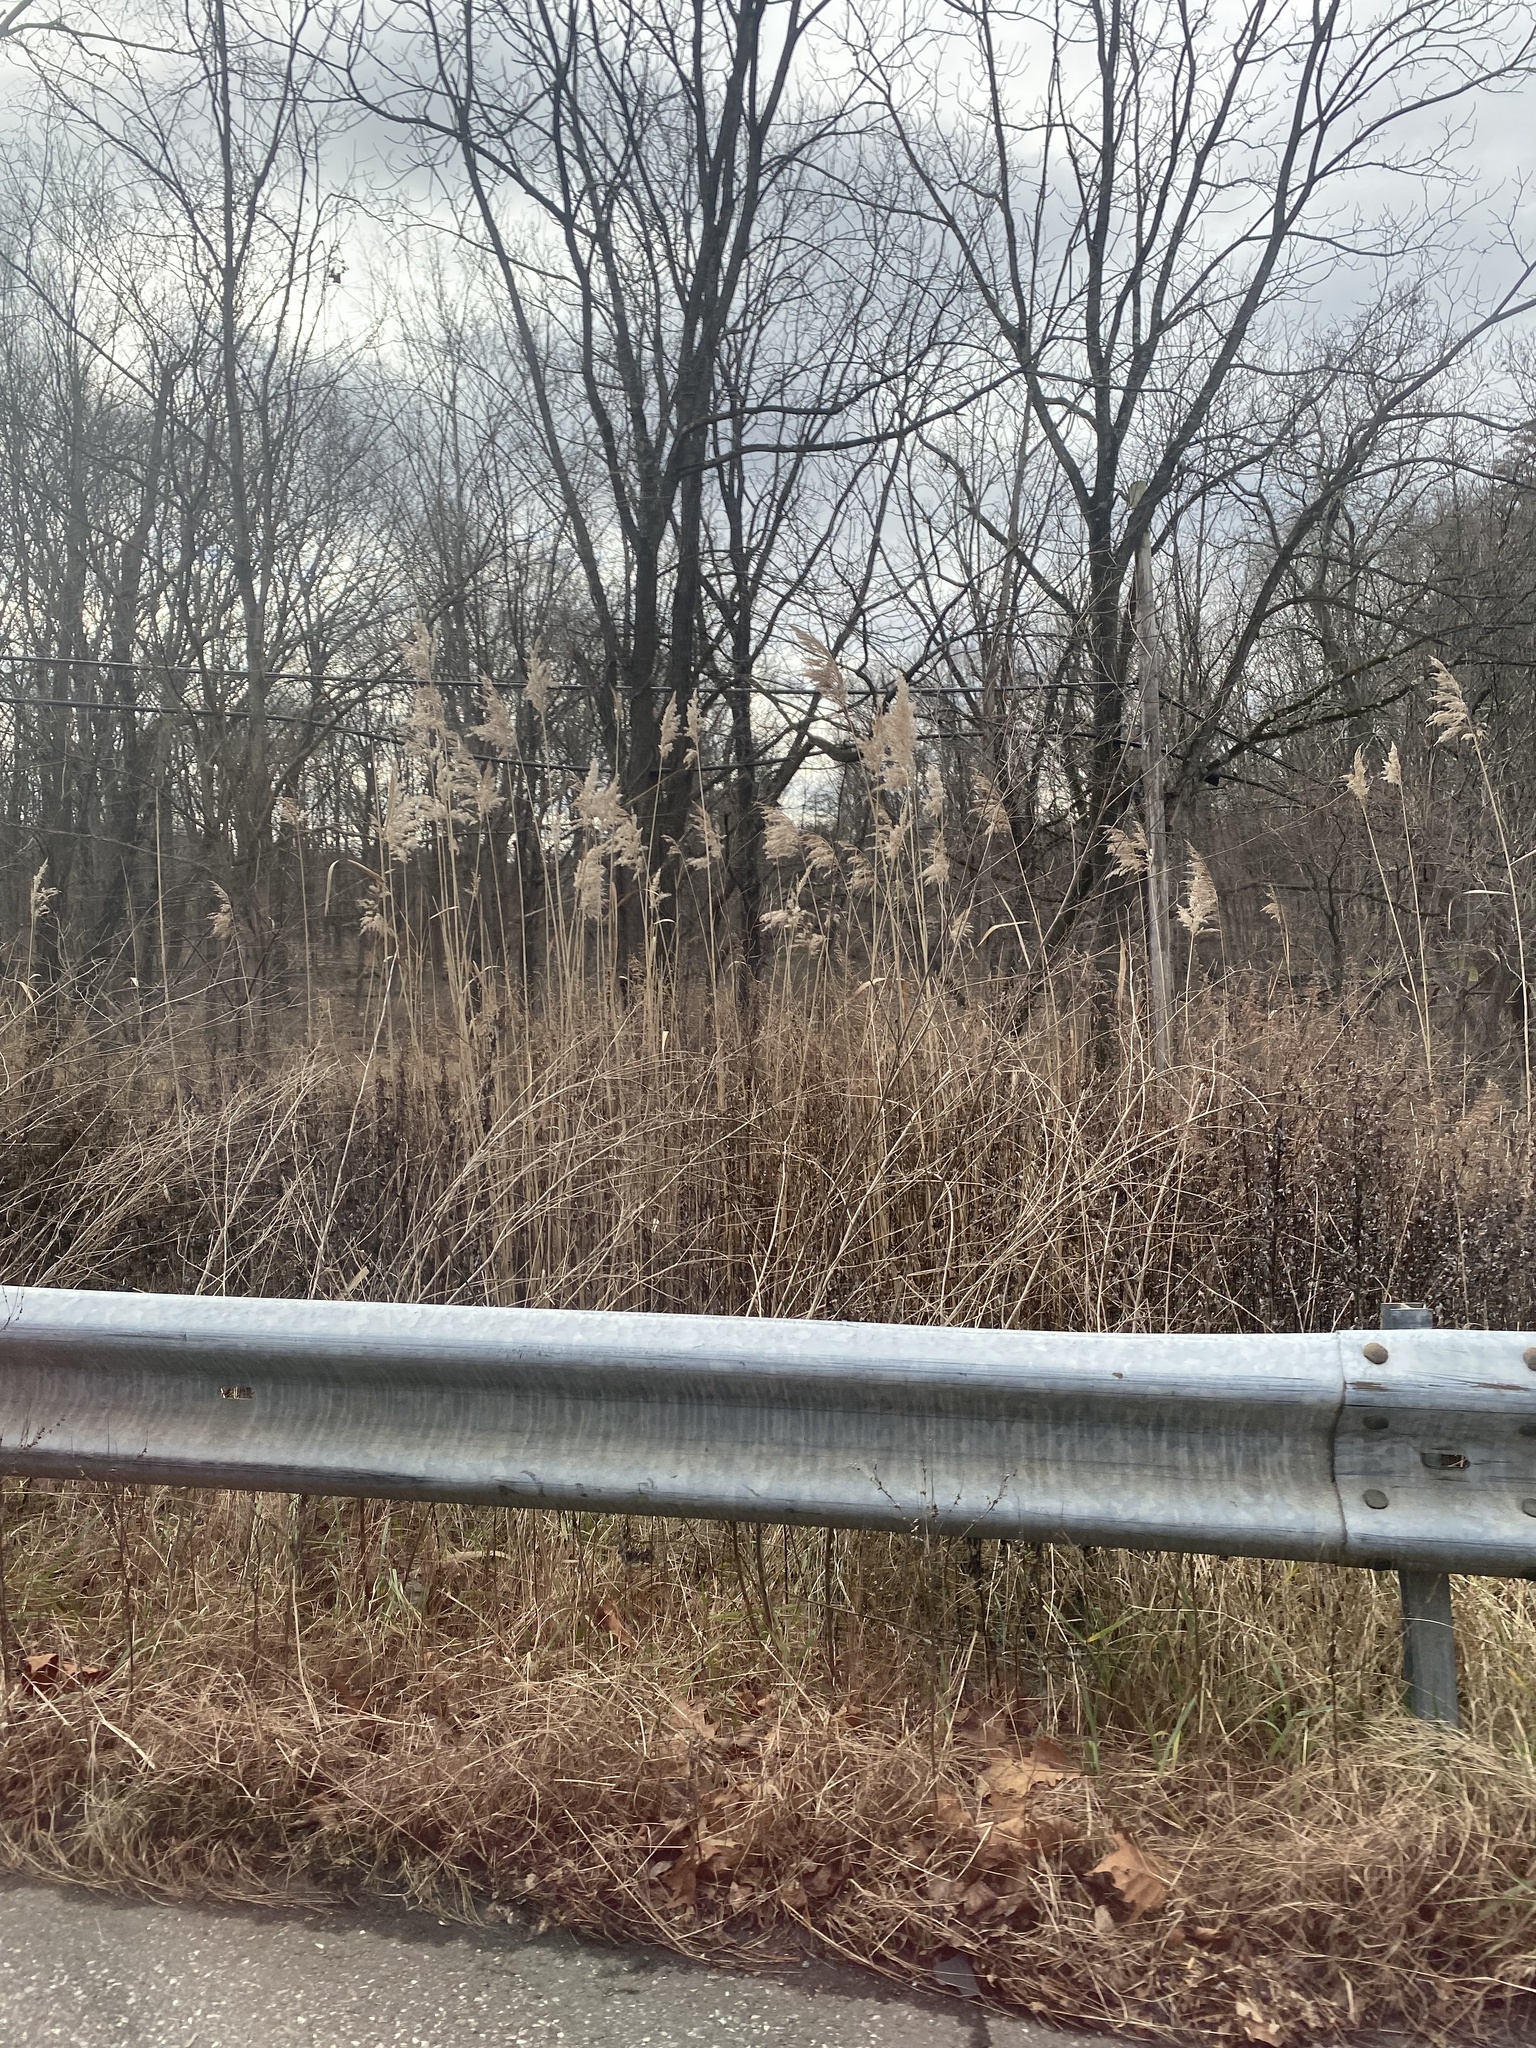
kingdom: Plantae
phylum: Tracheophyta
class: Liliopsida
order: Poales
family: Poaceae
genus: Phragmites
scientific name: Phragmites australis
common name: Common reed
